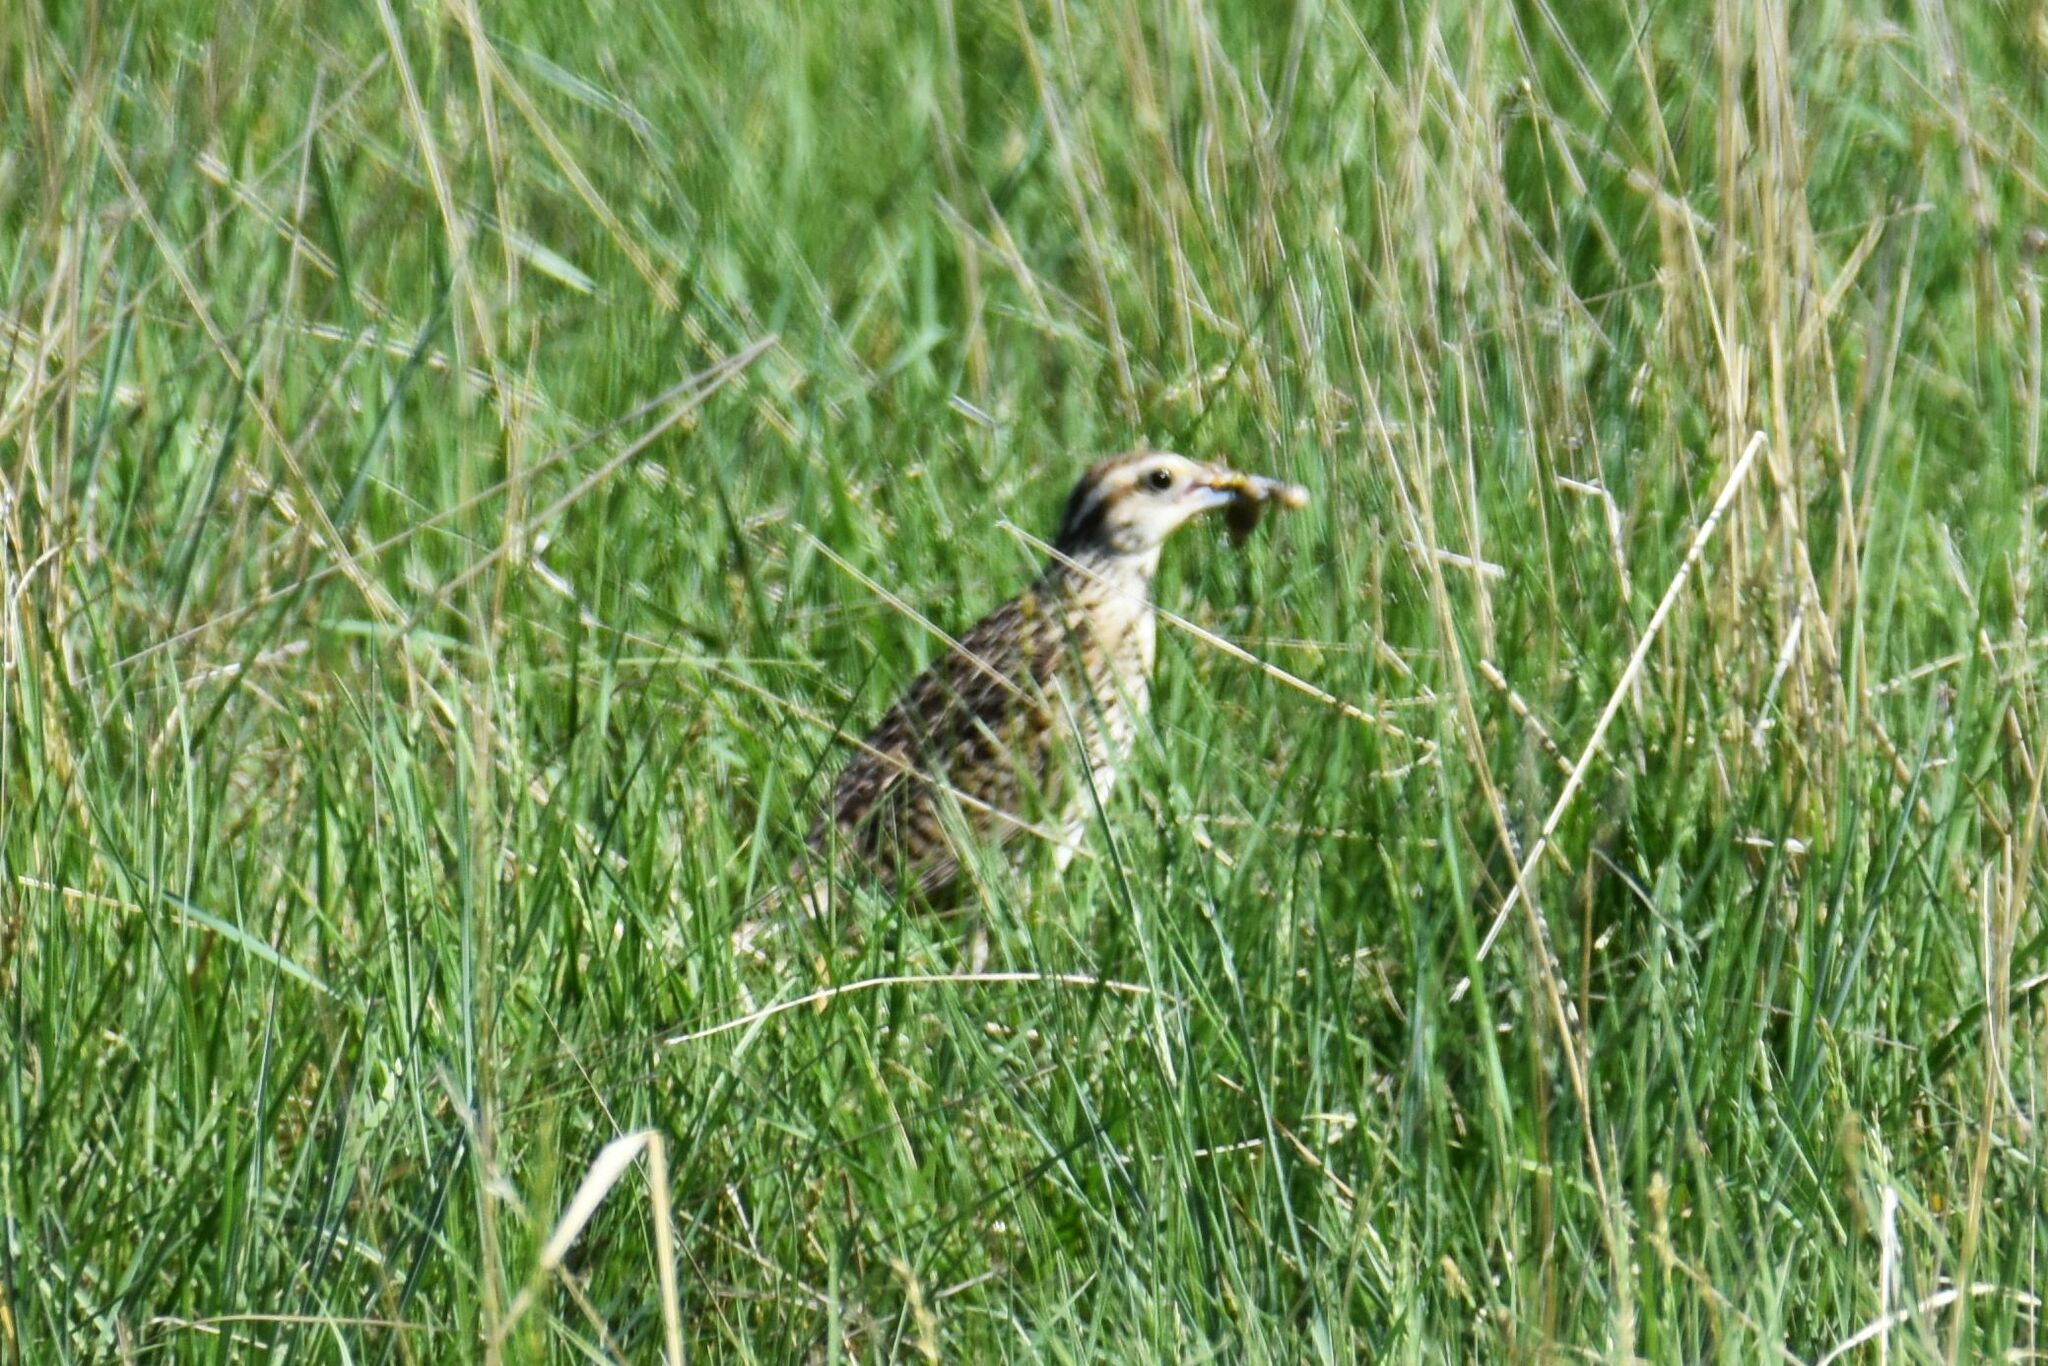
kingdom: Animalia
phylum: Chordata
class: Aves
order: Passeriformes
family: Icteridae
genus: Sturnella
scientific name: Sturnella neglecta
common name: Western meadowlark
